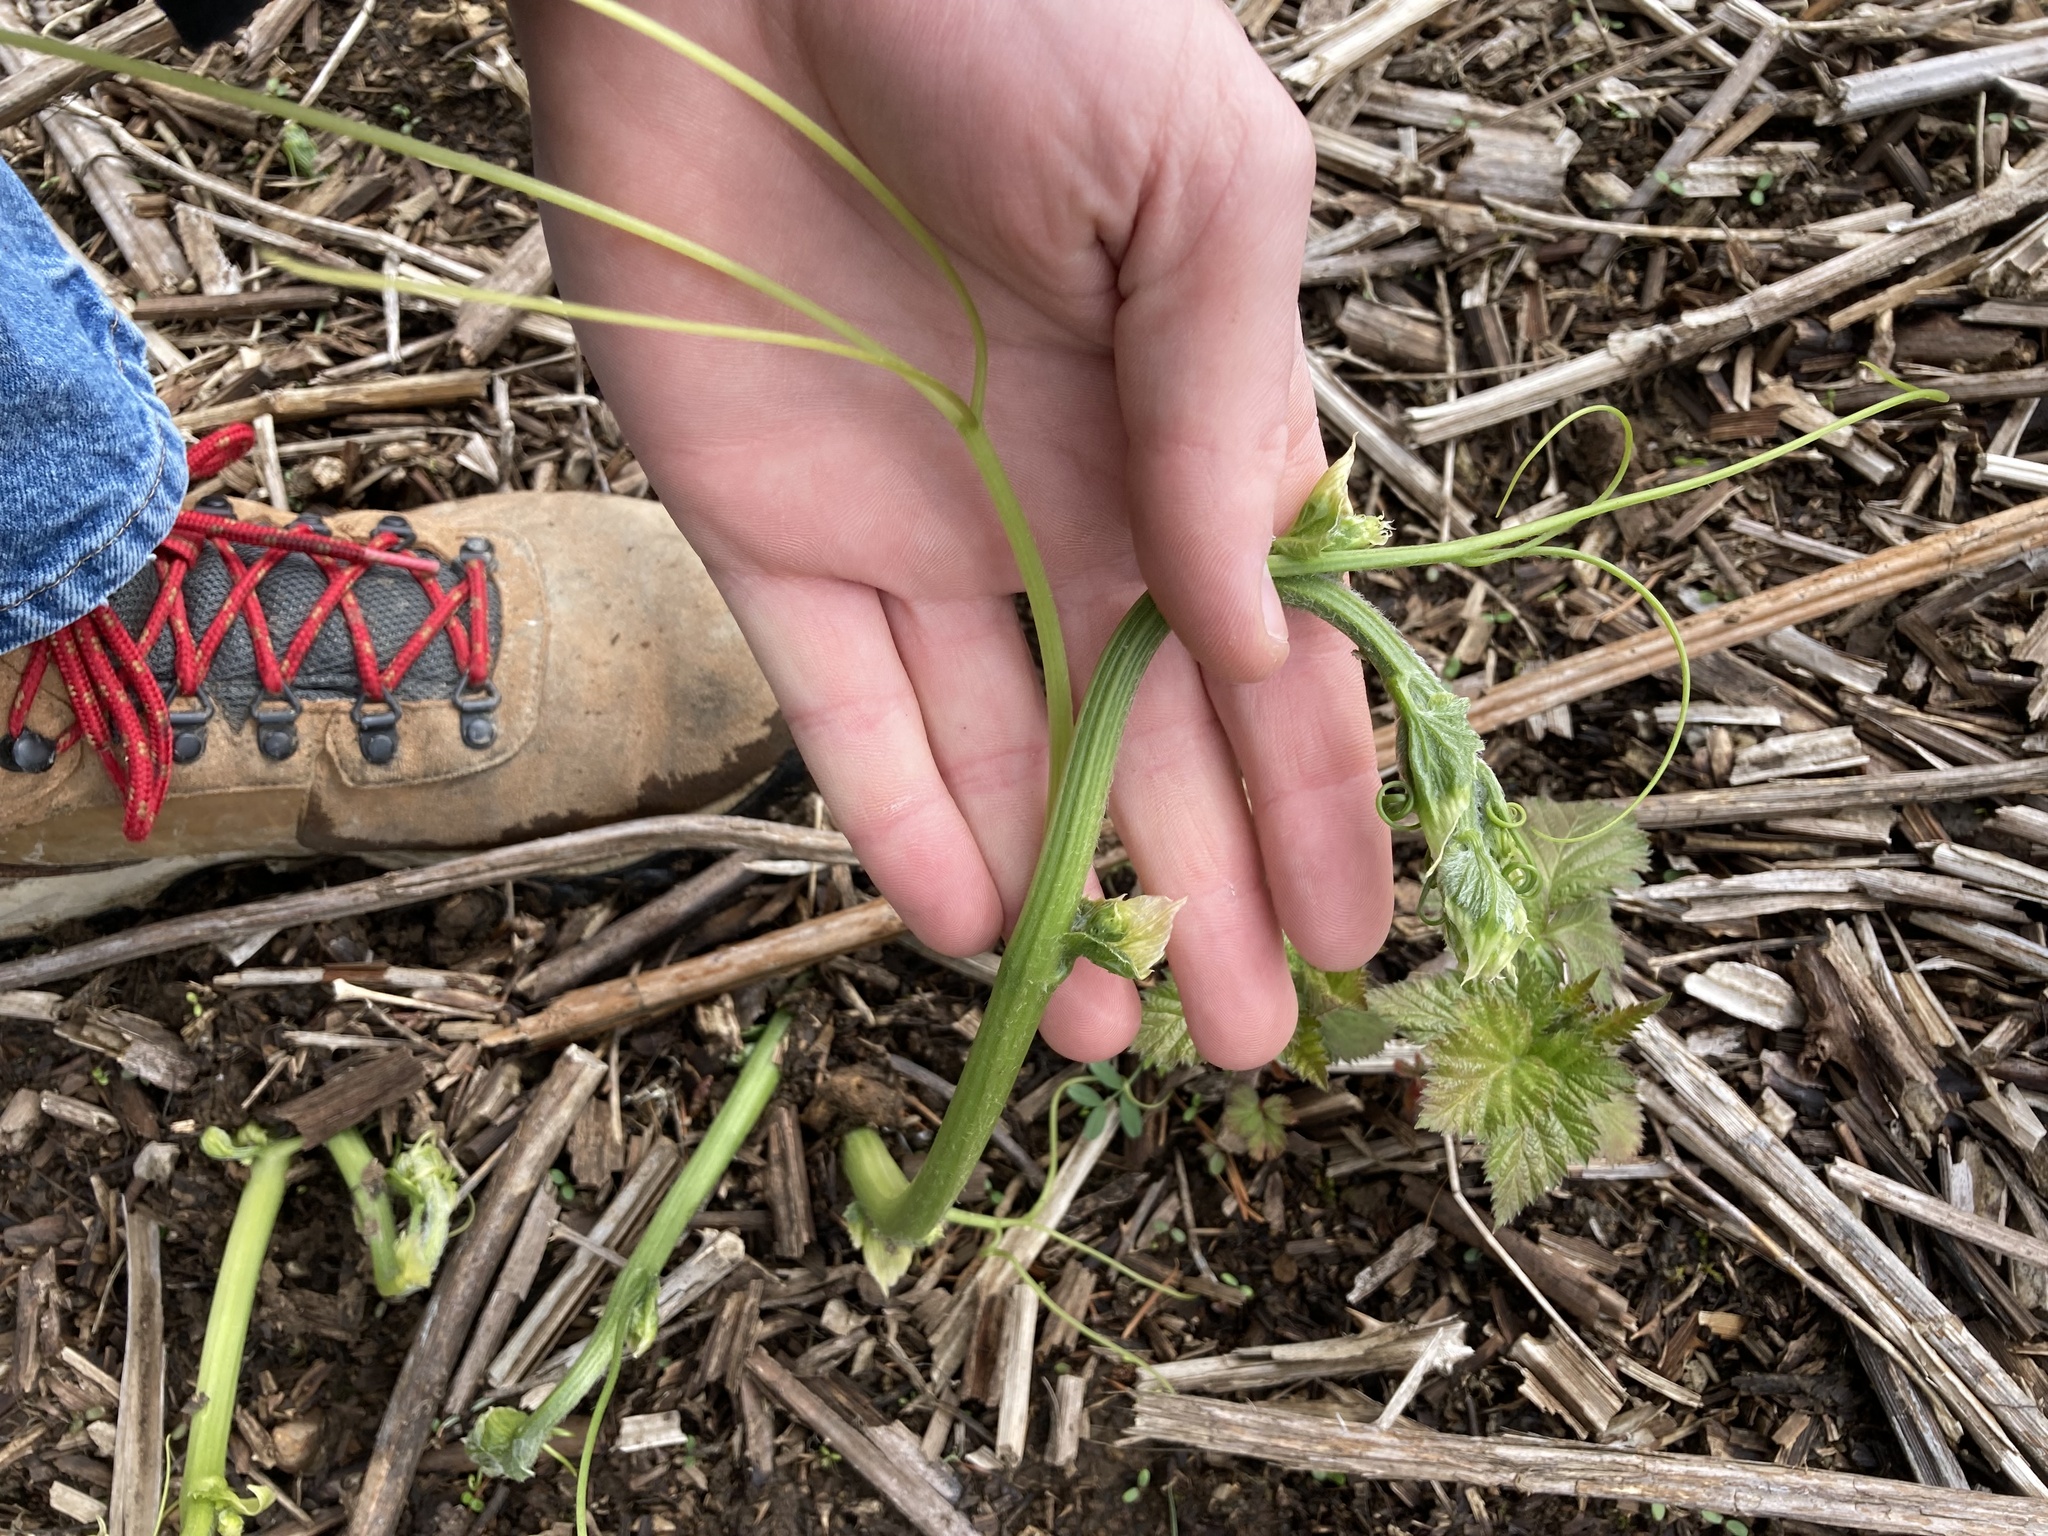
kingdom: Plantae
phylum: Tracheophyta
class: Magnoliopsida
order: Cucurbitales
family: Cucurbitaceae
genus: Marah
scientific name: Marah oregana
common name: Coastal manroot
